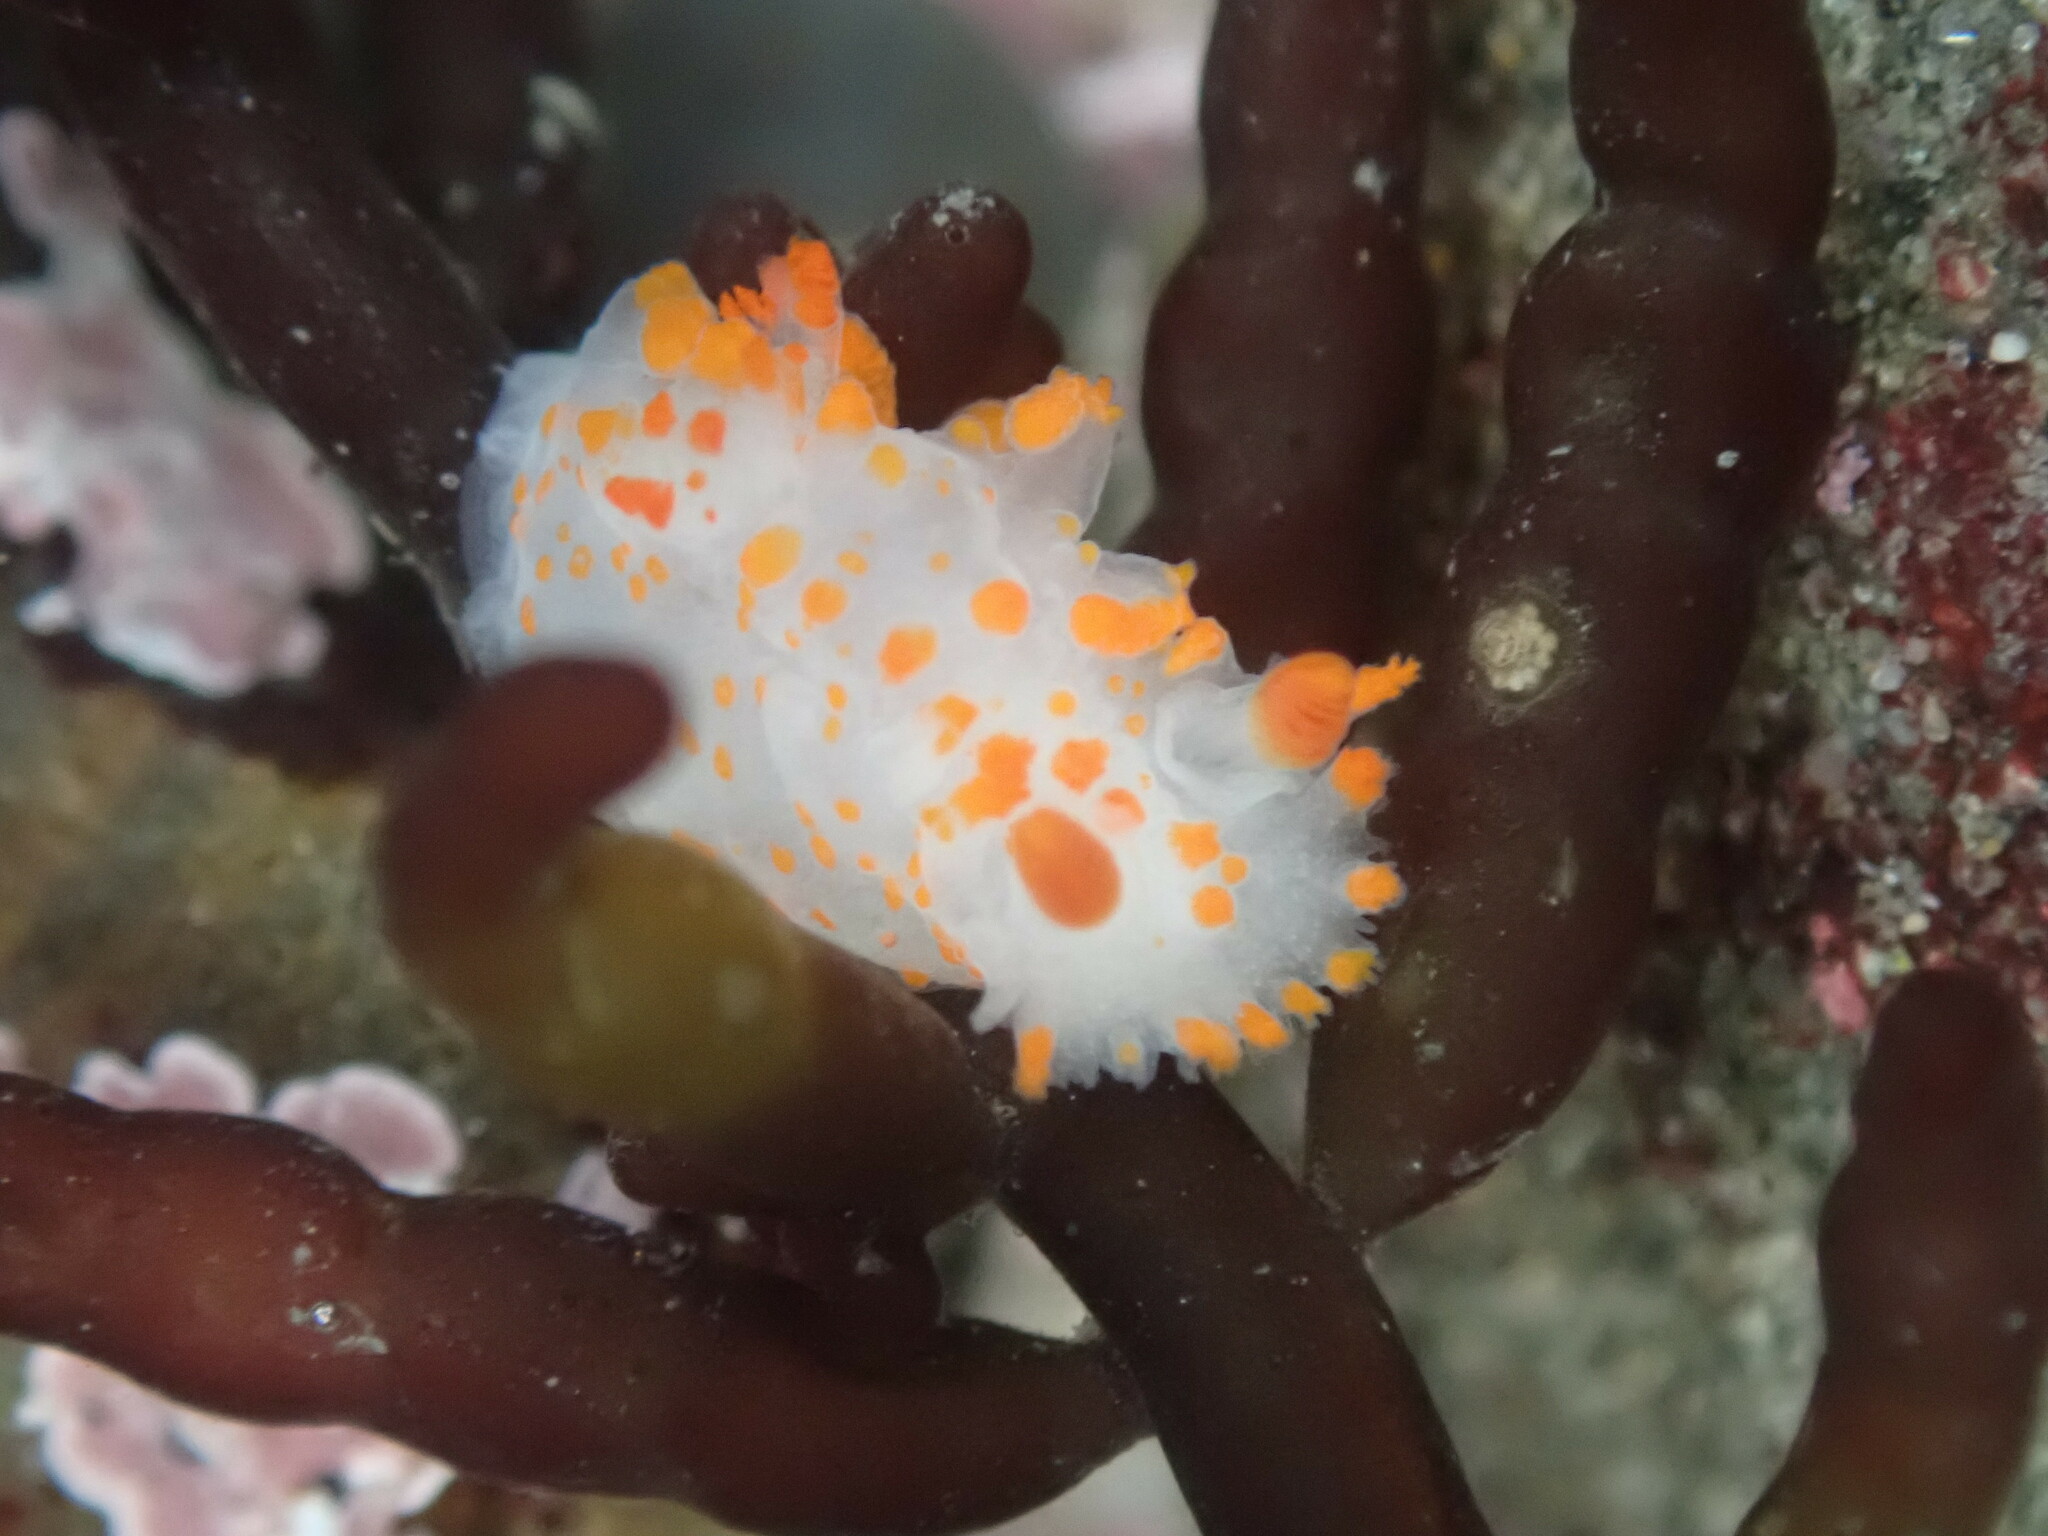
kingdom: Animalia
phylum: Mollusca
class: Gastropoda
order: Nudibranchia
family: Polyceridae
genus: Triopha
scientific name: Triopha catalinae
